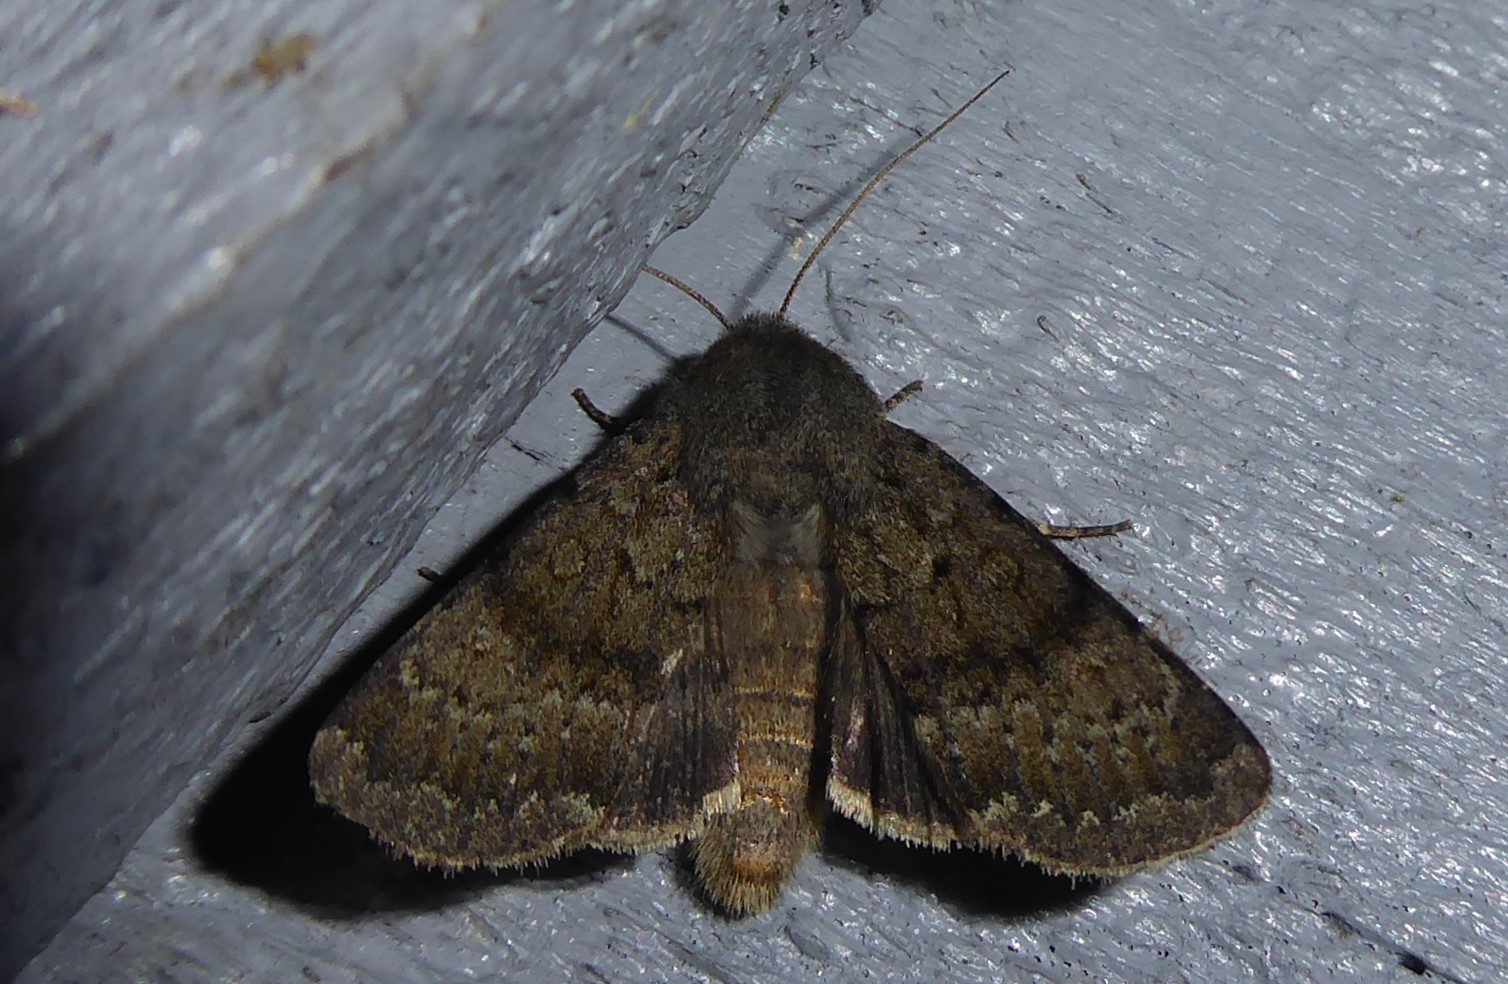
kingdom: Animalia
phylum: Arthropoda
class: Insecta
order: Lepidoptera
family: Noctuidae
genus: Ichneutica
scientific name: Ichneutica moderata
